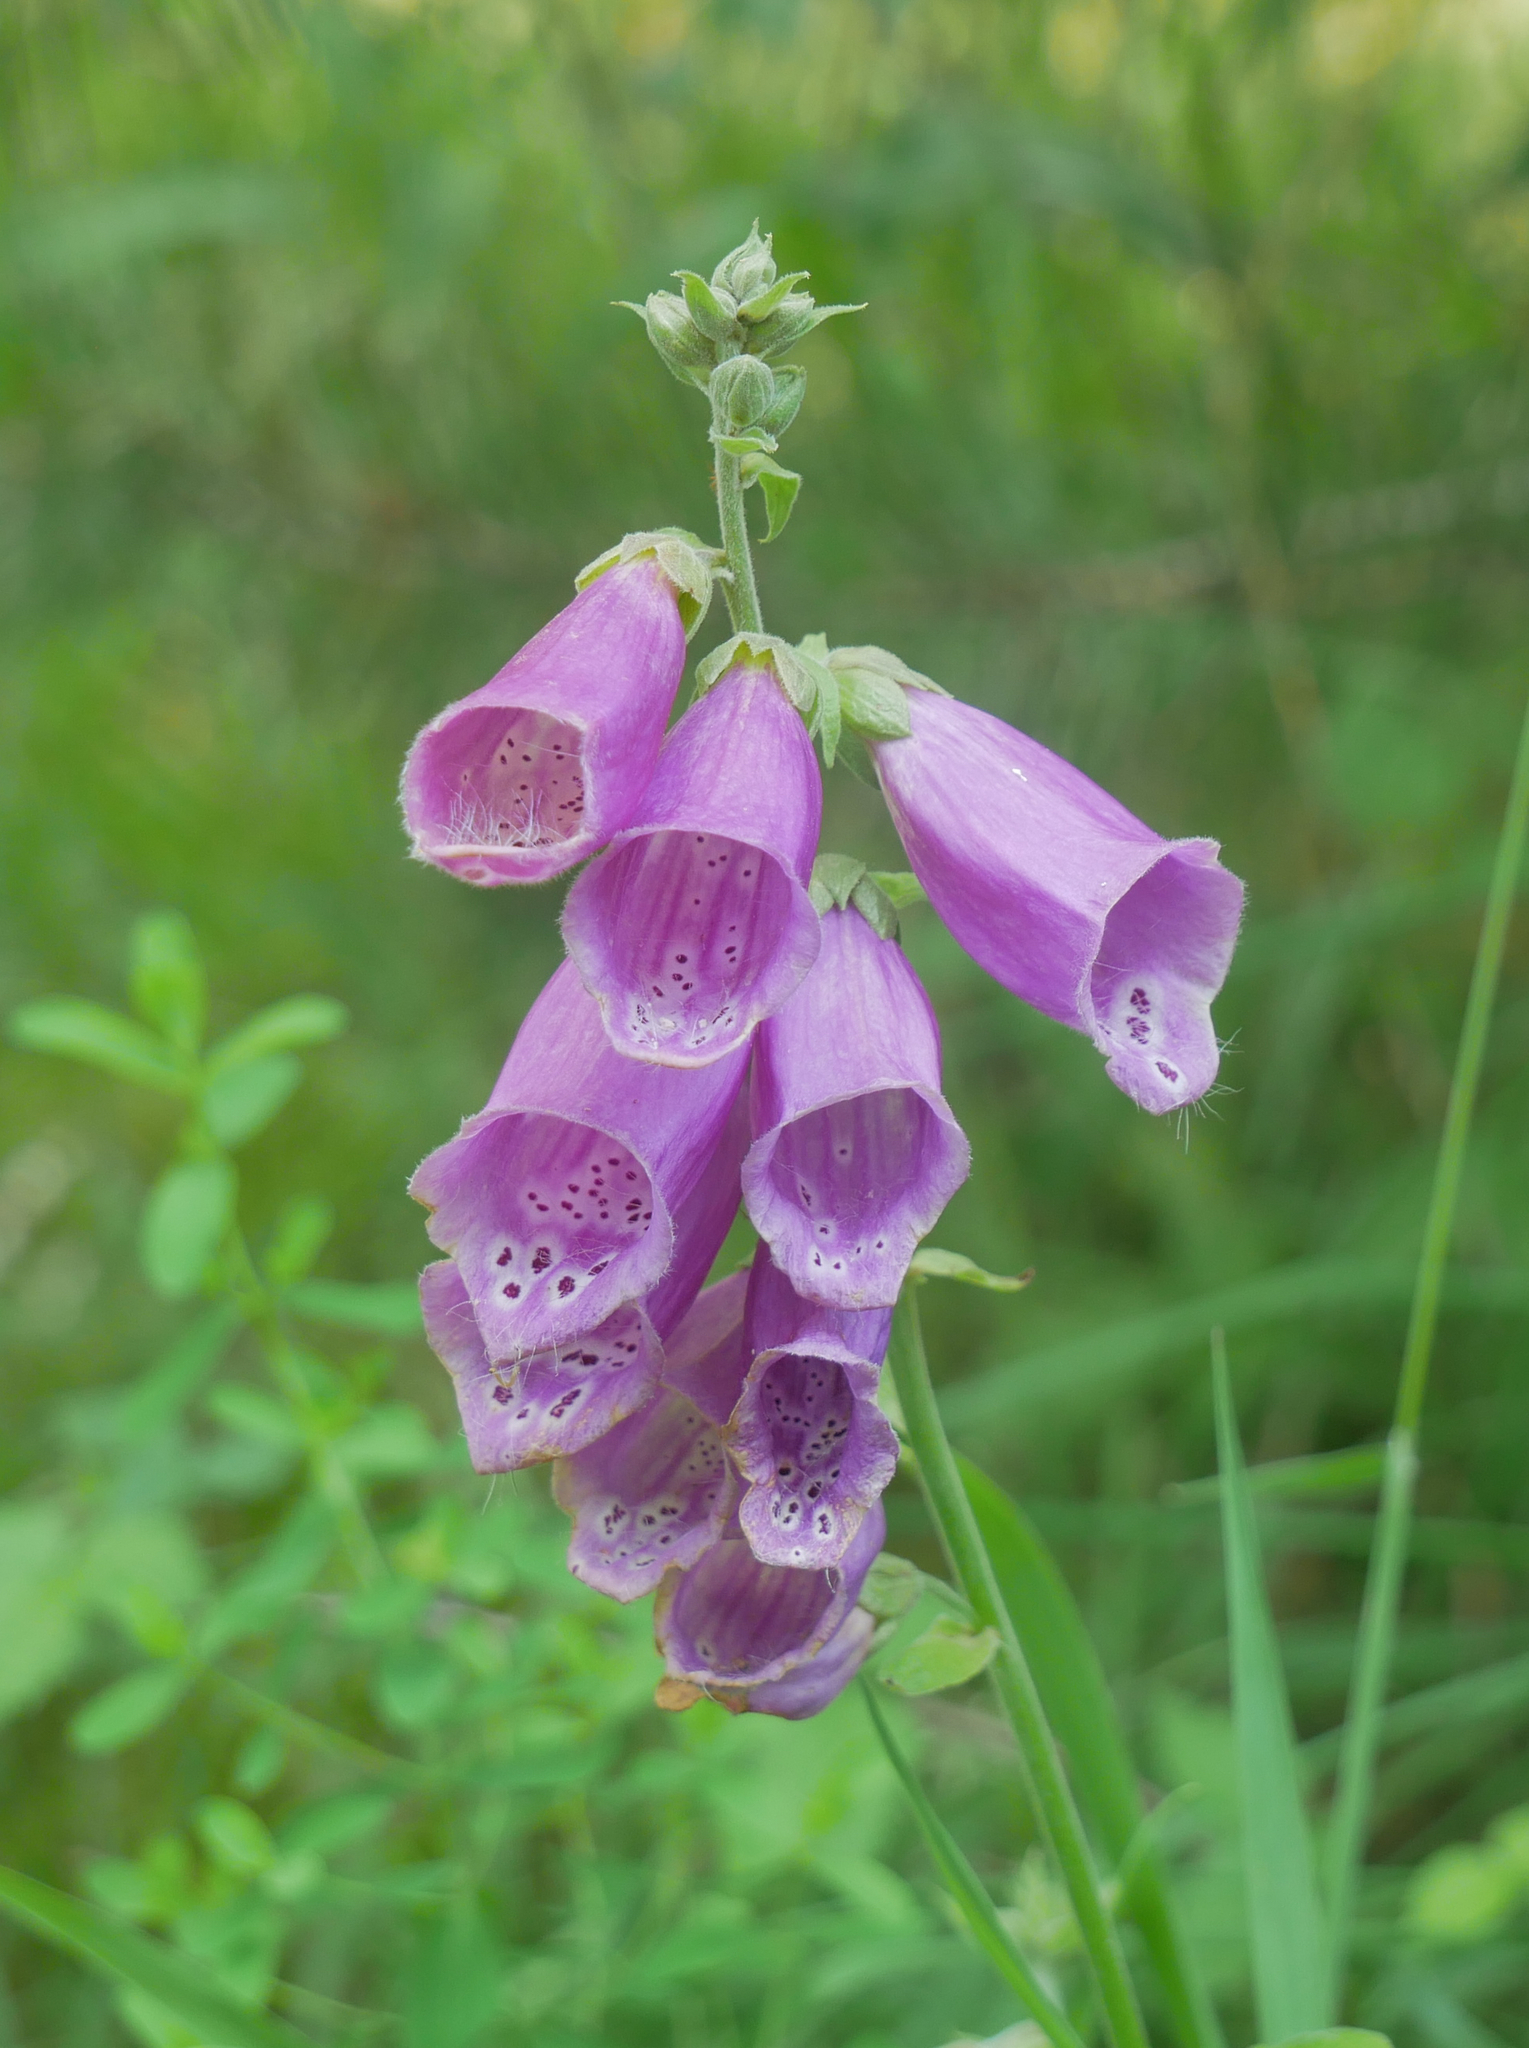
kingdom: Plantae
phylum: Tracheophyta
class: Magnoliopsida
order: Lamiales
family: Plantaginaceae
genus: Digitalis
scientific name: Digitalis purpurea
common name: Foxglove
